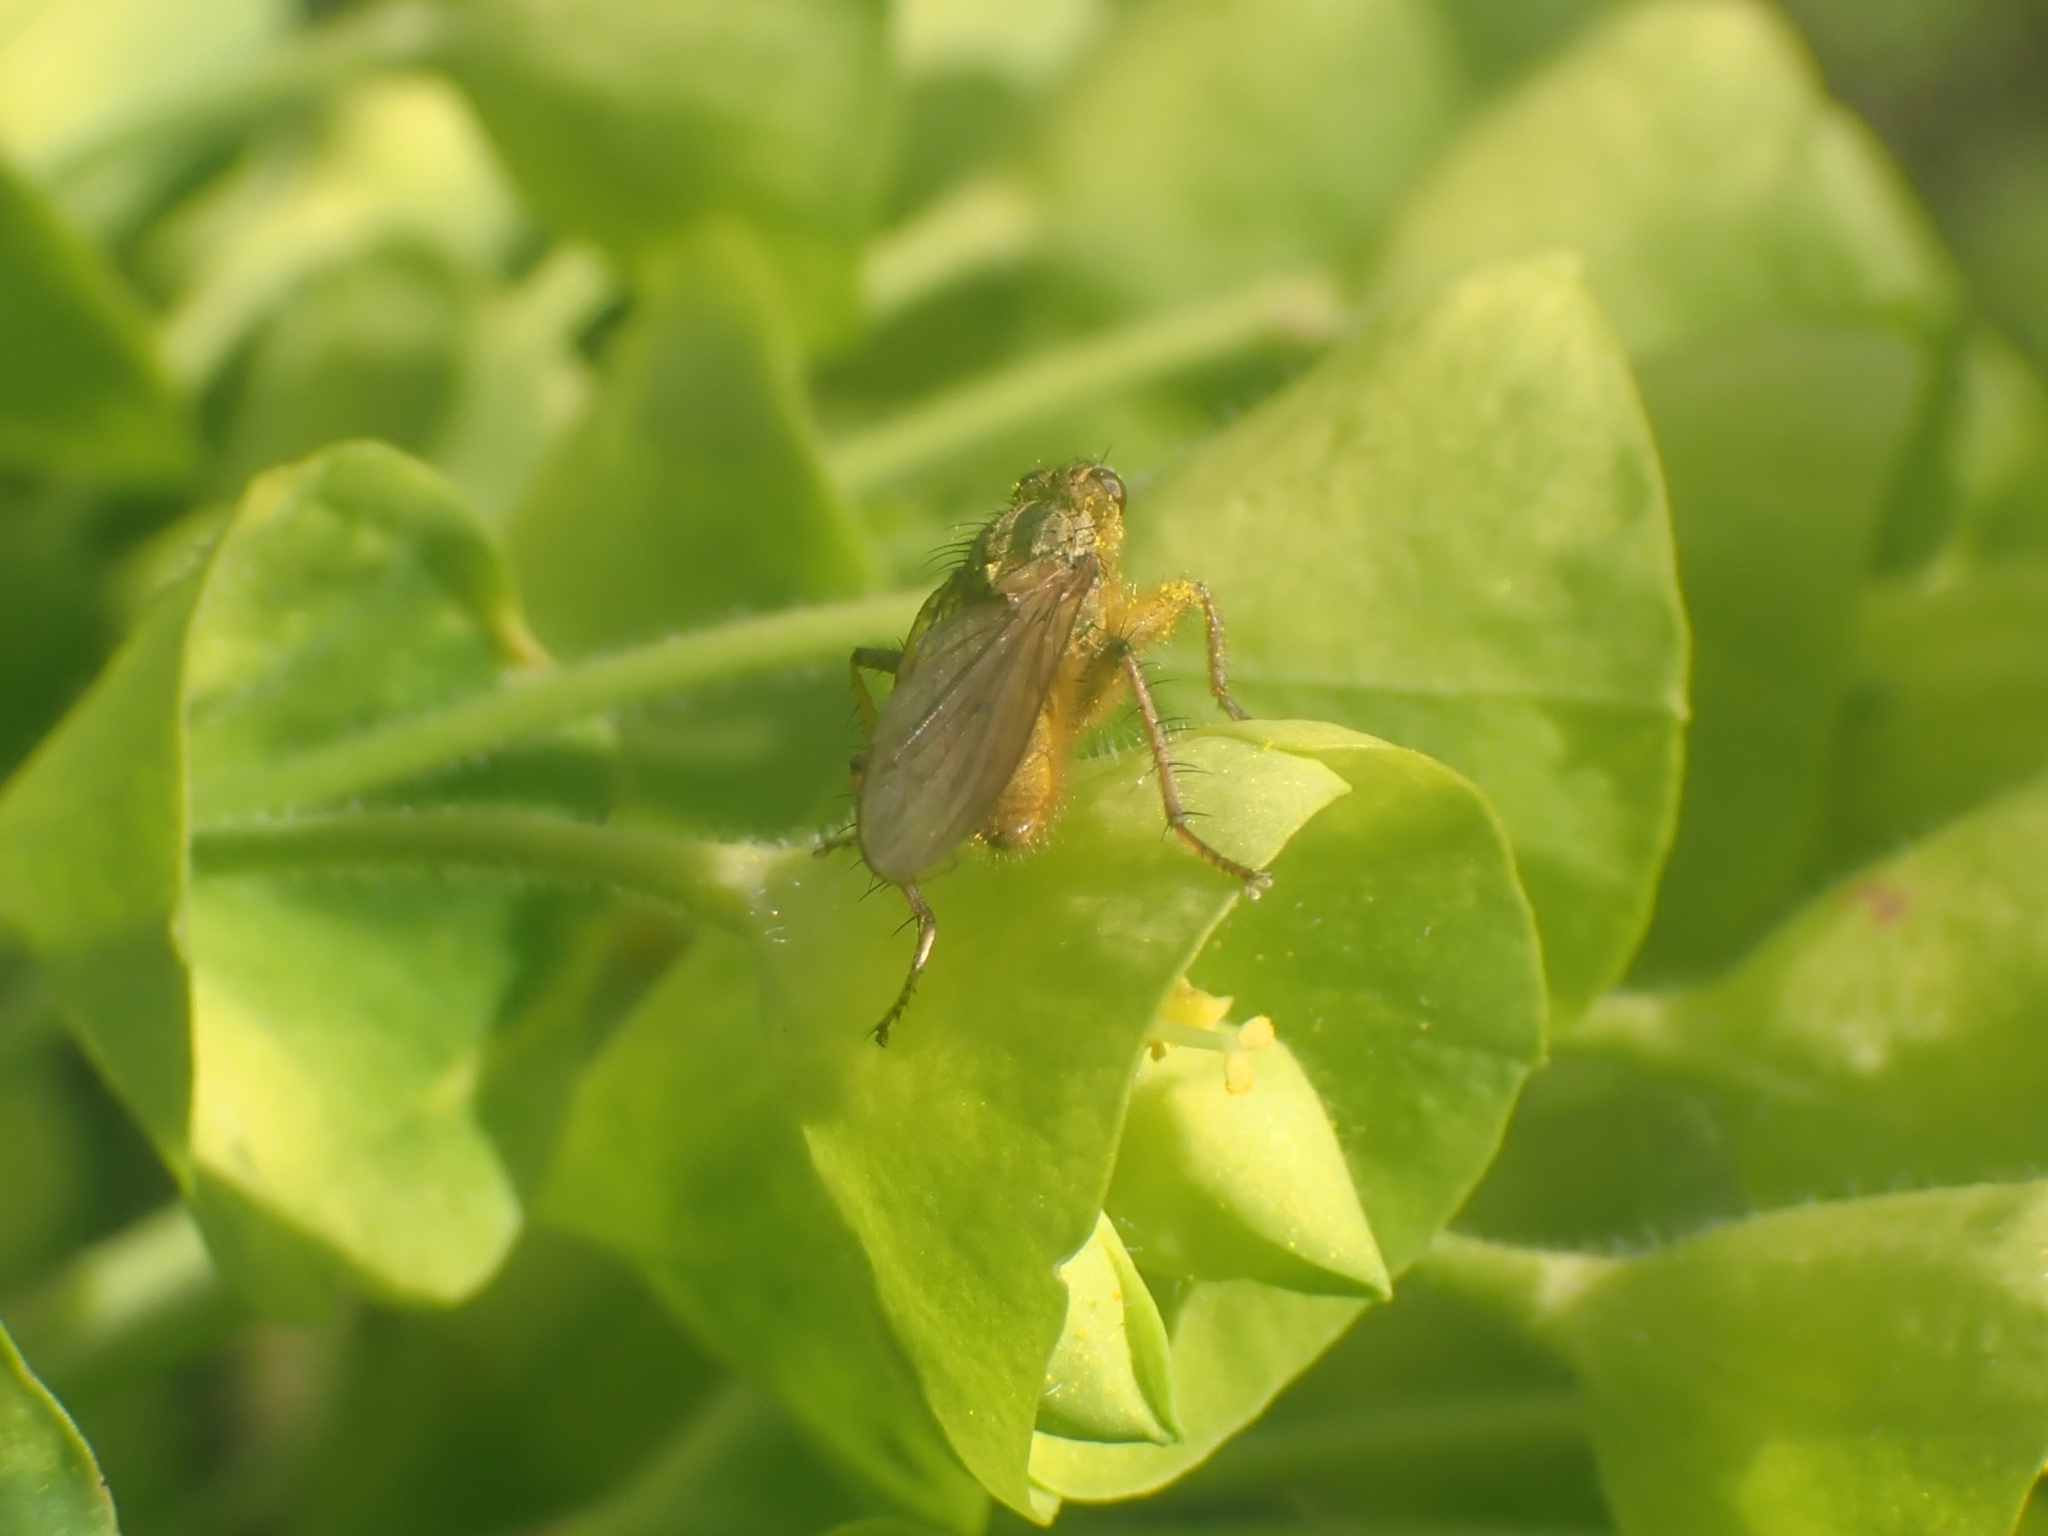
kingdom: Animalia
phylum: Arthropoda
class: Insecta
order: Diptera
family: Scathophagidae
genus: Scathophaga
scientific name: Scathophaga stercoraria
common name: Yellow dung fly
